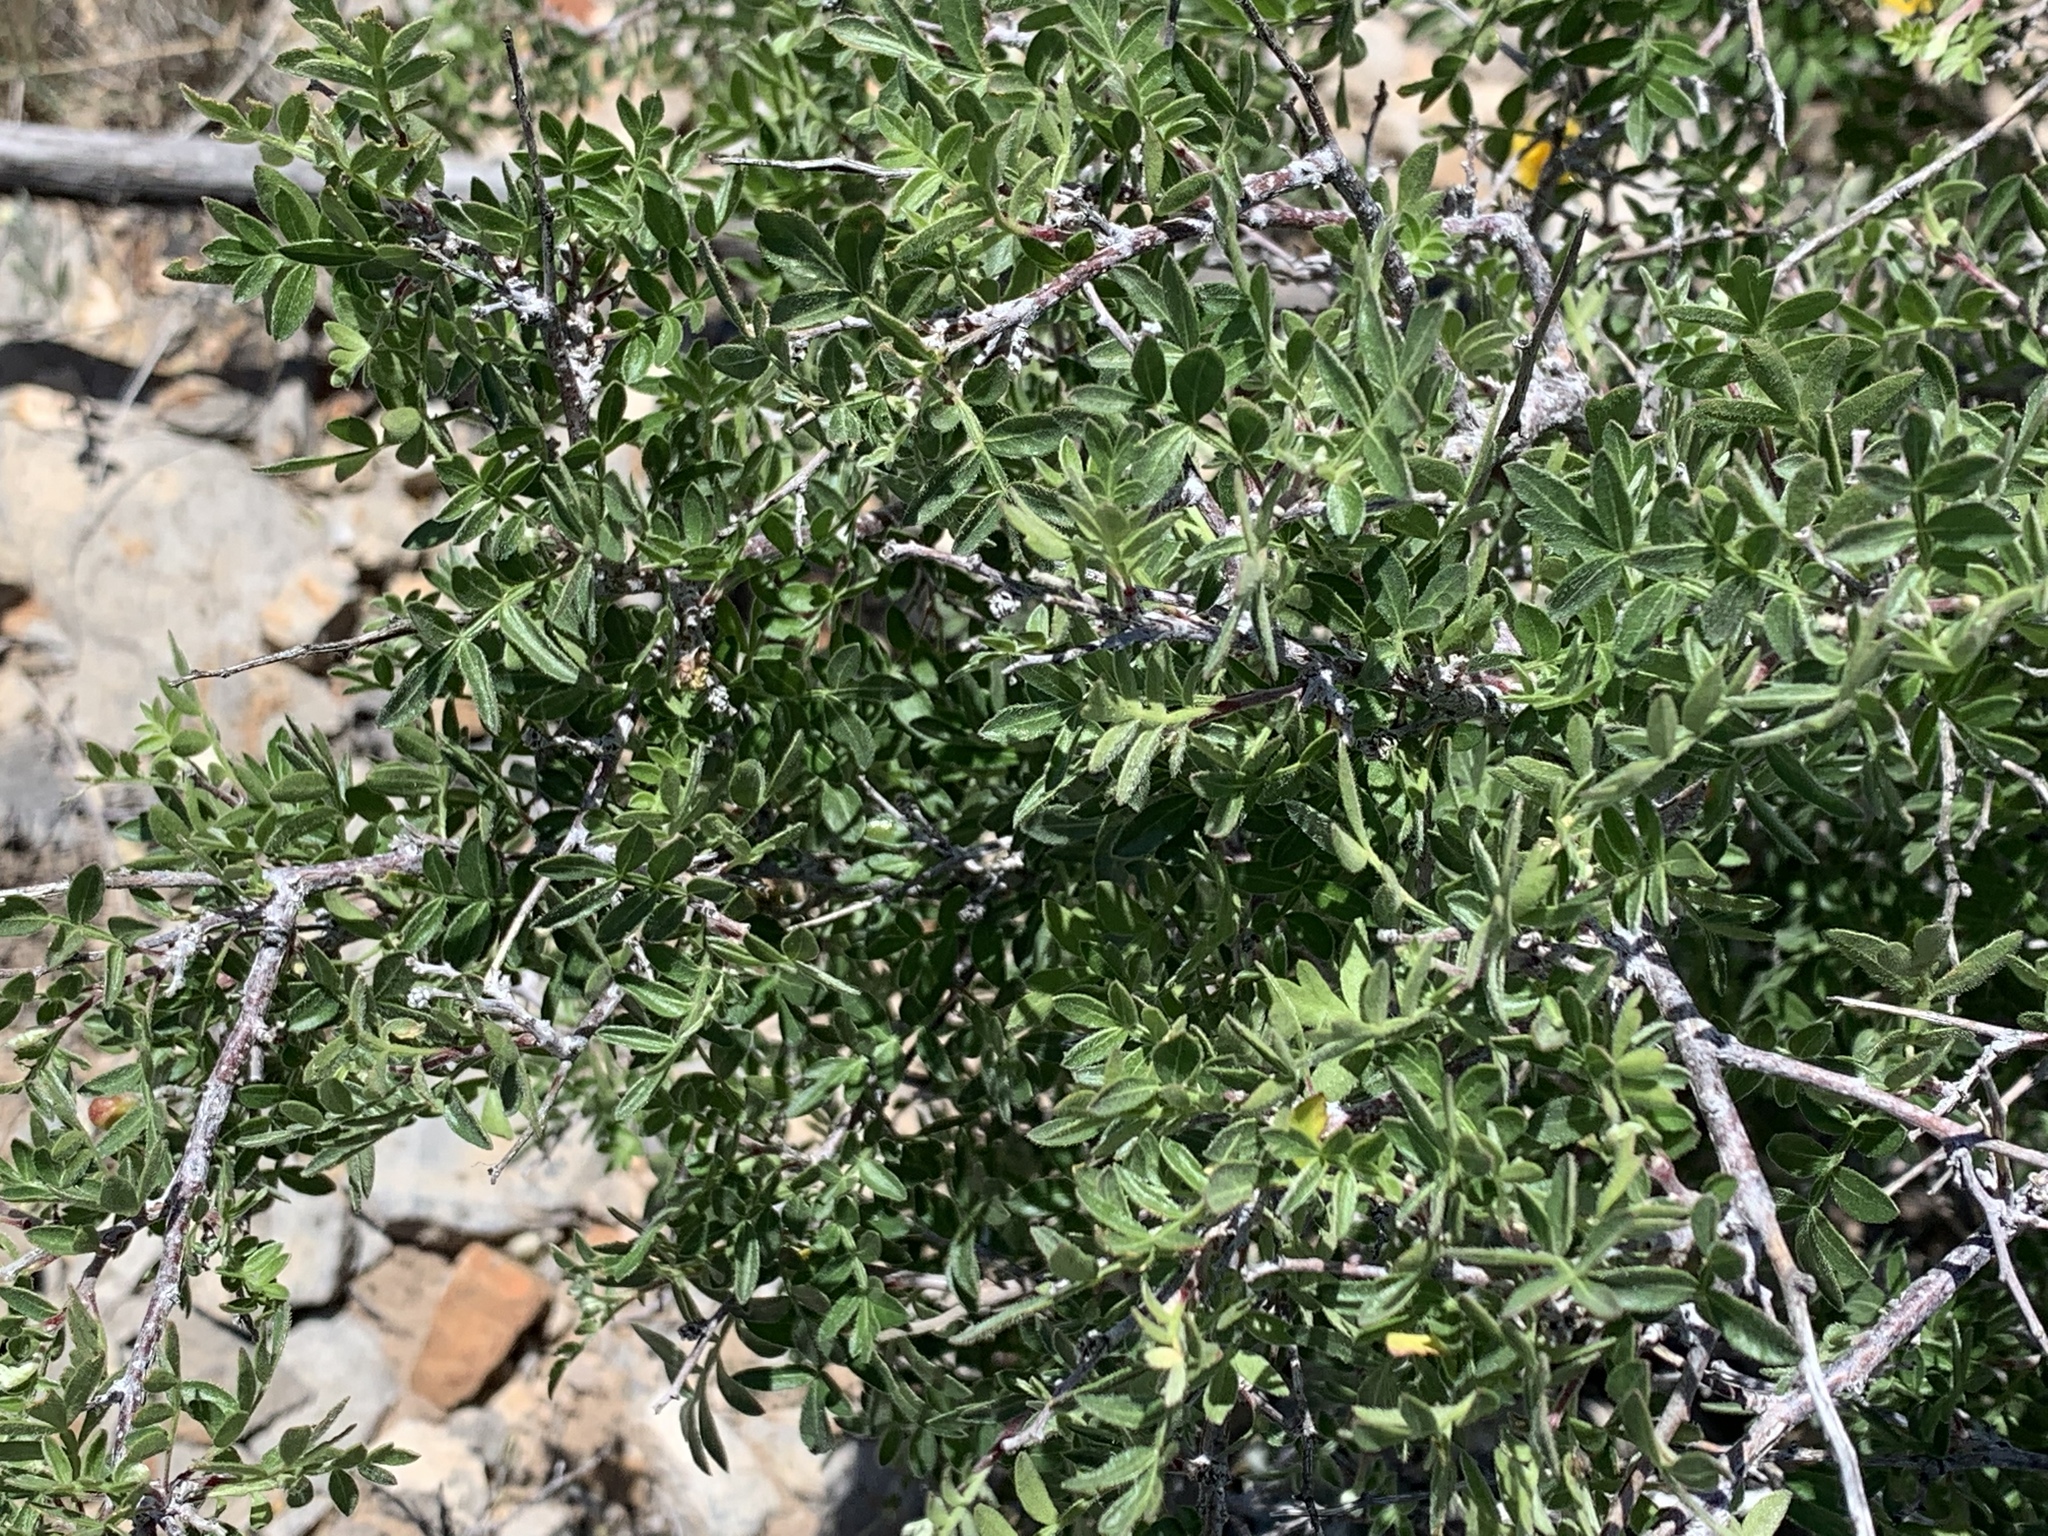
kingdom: Plantae
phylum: Tracheophyta
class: Magnoliopsida
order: Sapindales
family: Anacardiaceae
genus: Rhus
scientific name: Rhus microphylla
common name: Desert sumac
